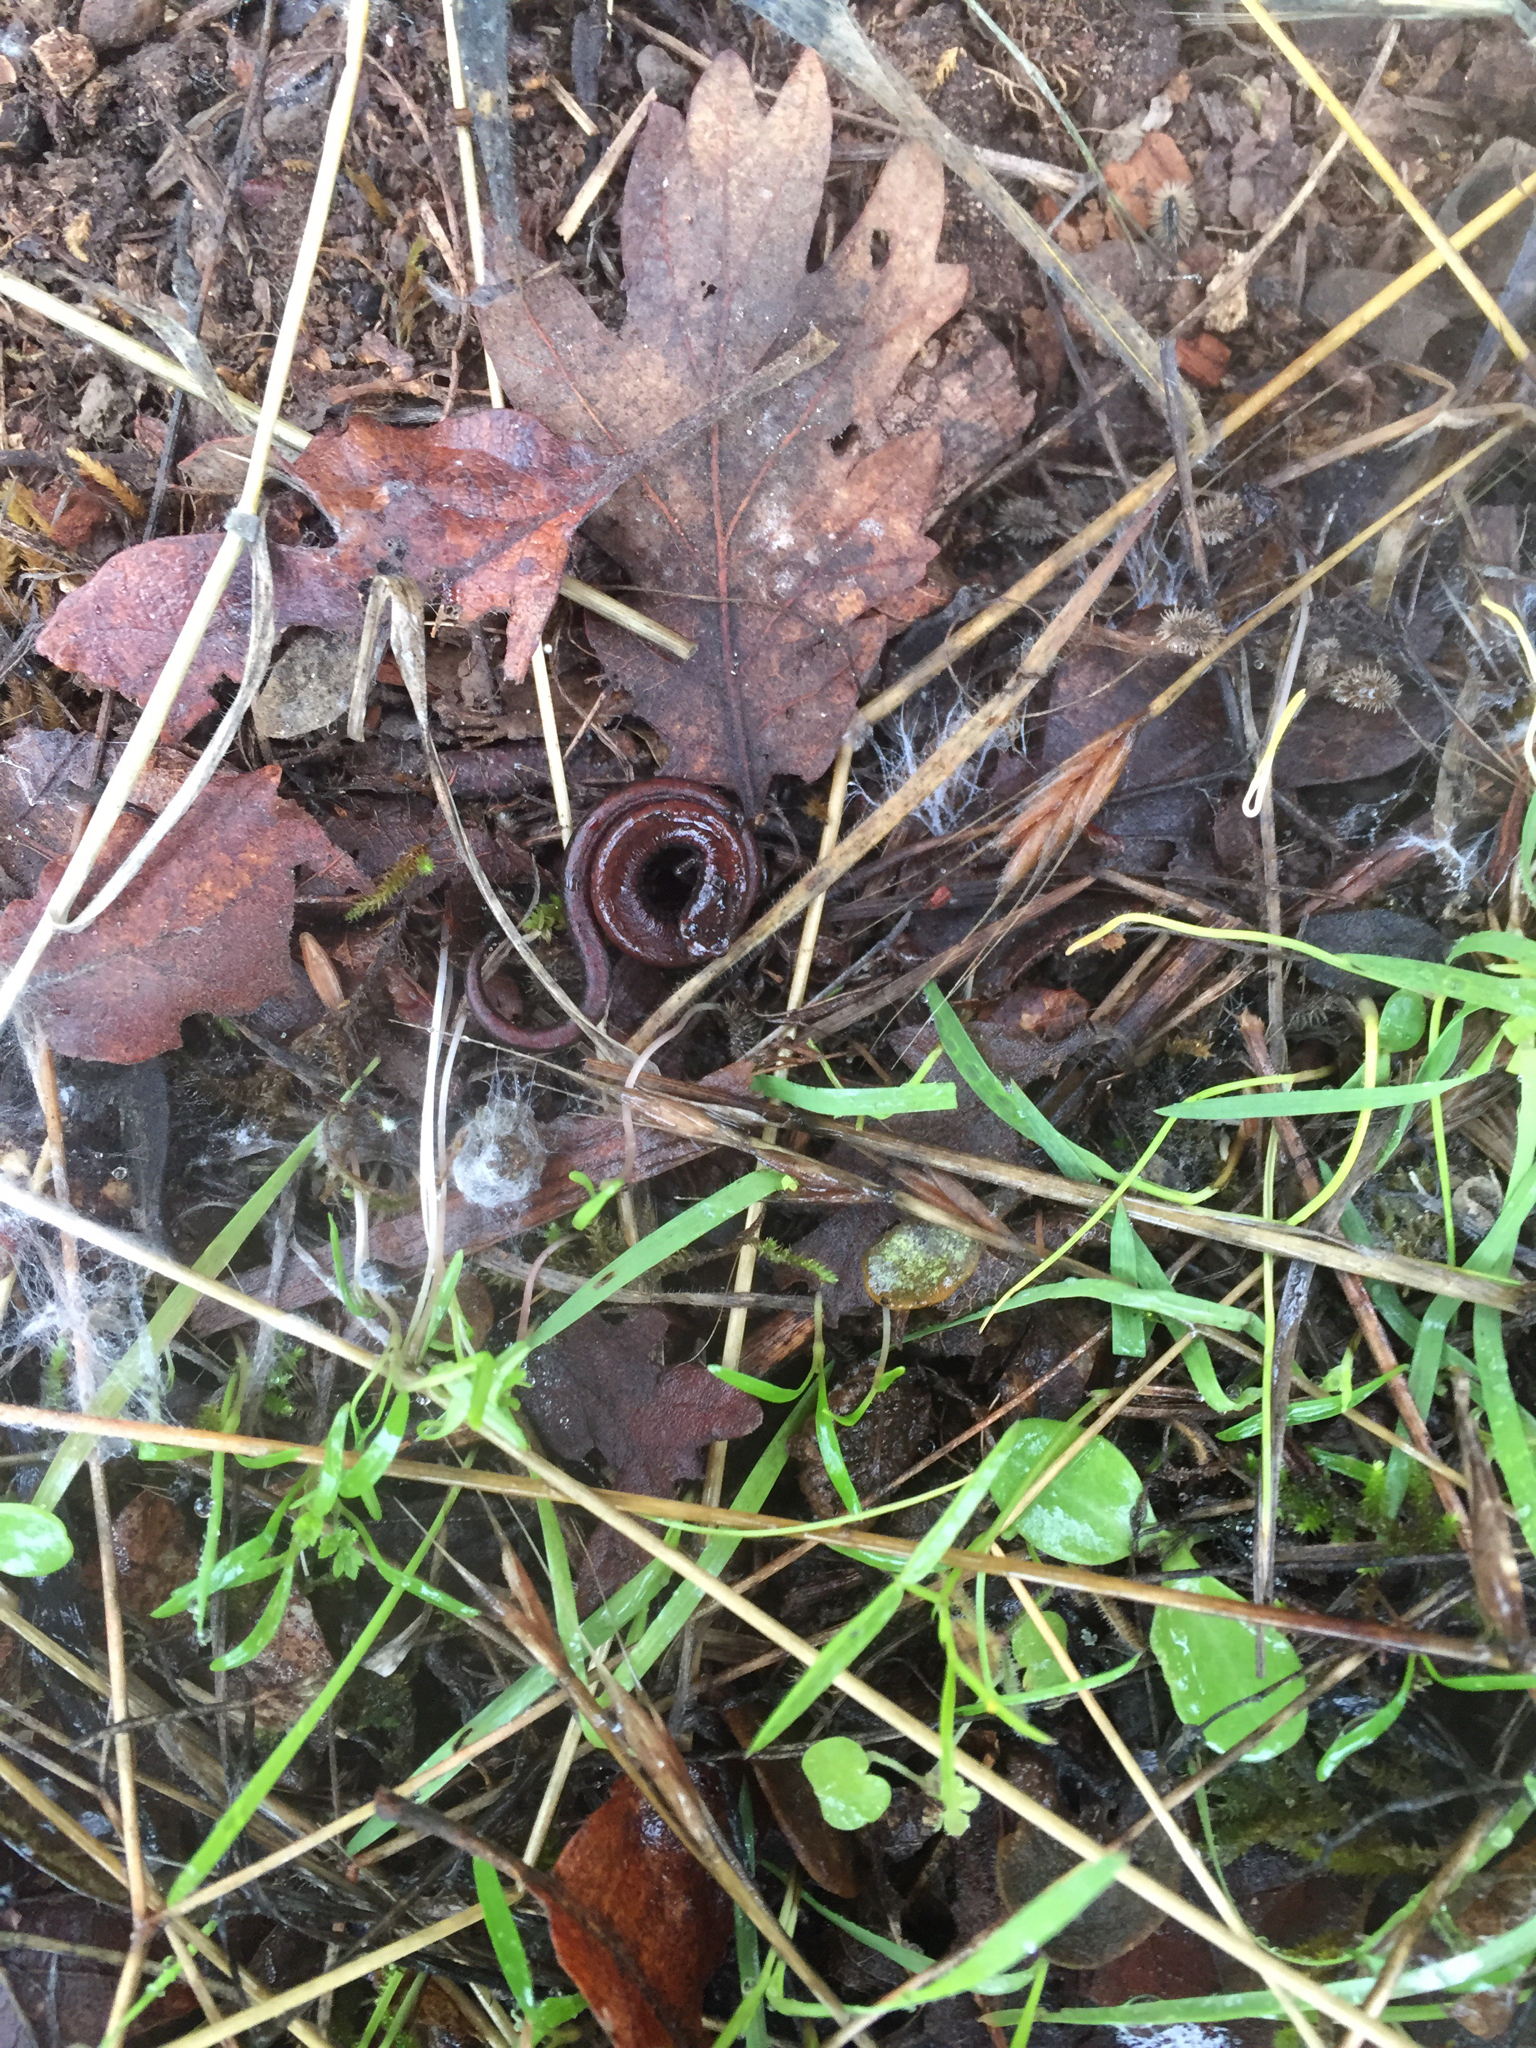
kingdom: Animalia
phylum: Chordata
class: Amphibia
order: Caudata
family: Plethodontidae
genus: Batrachoseps
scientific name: Batrachoseps attenuatus
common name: California slender salamander
